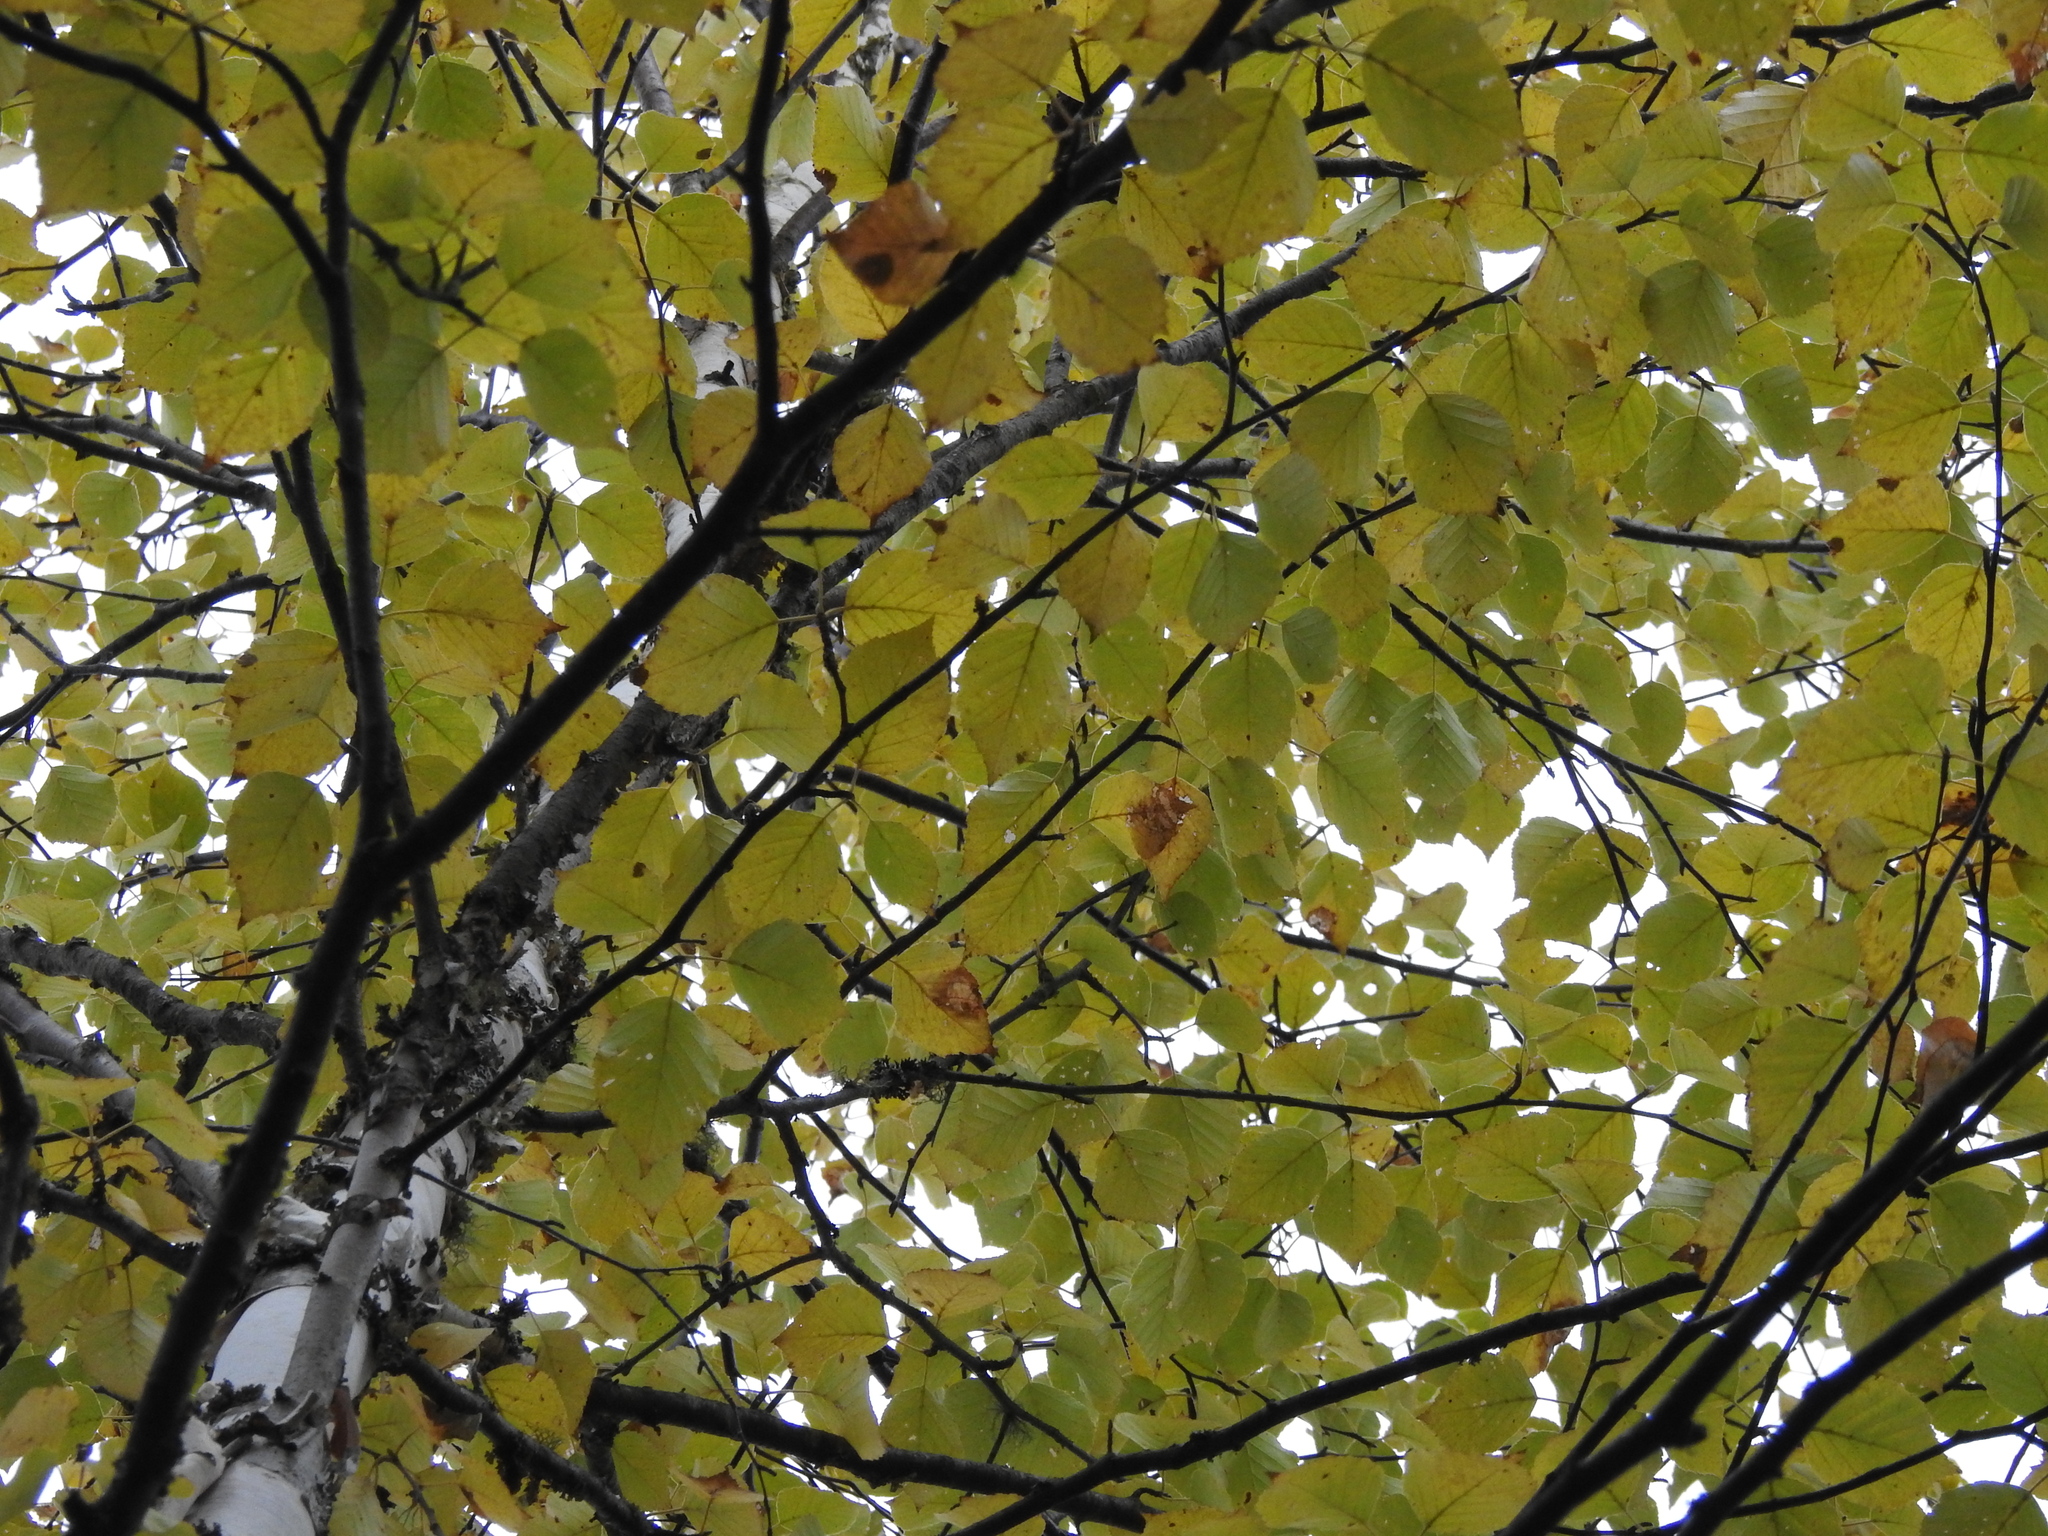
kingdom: Plantae
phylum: Tracheophyta
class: Magnoliopsida
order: Fagales
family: Betulaceae
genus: Betula
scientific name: Betula papyrifera
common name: Paper birch
